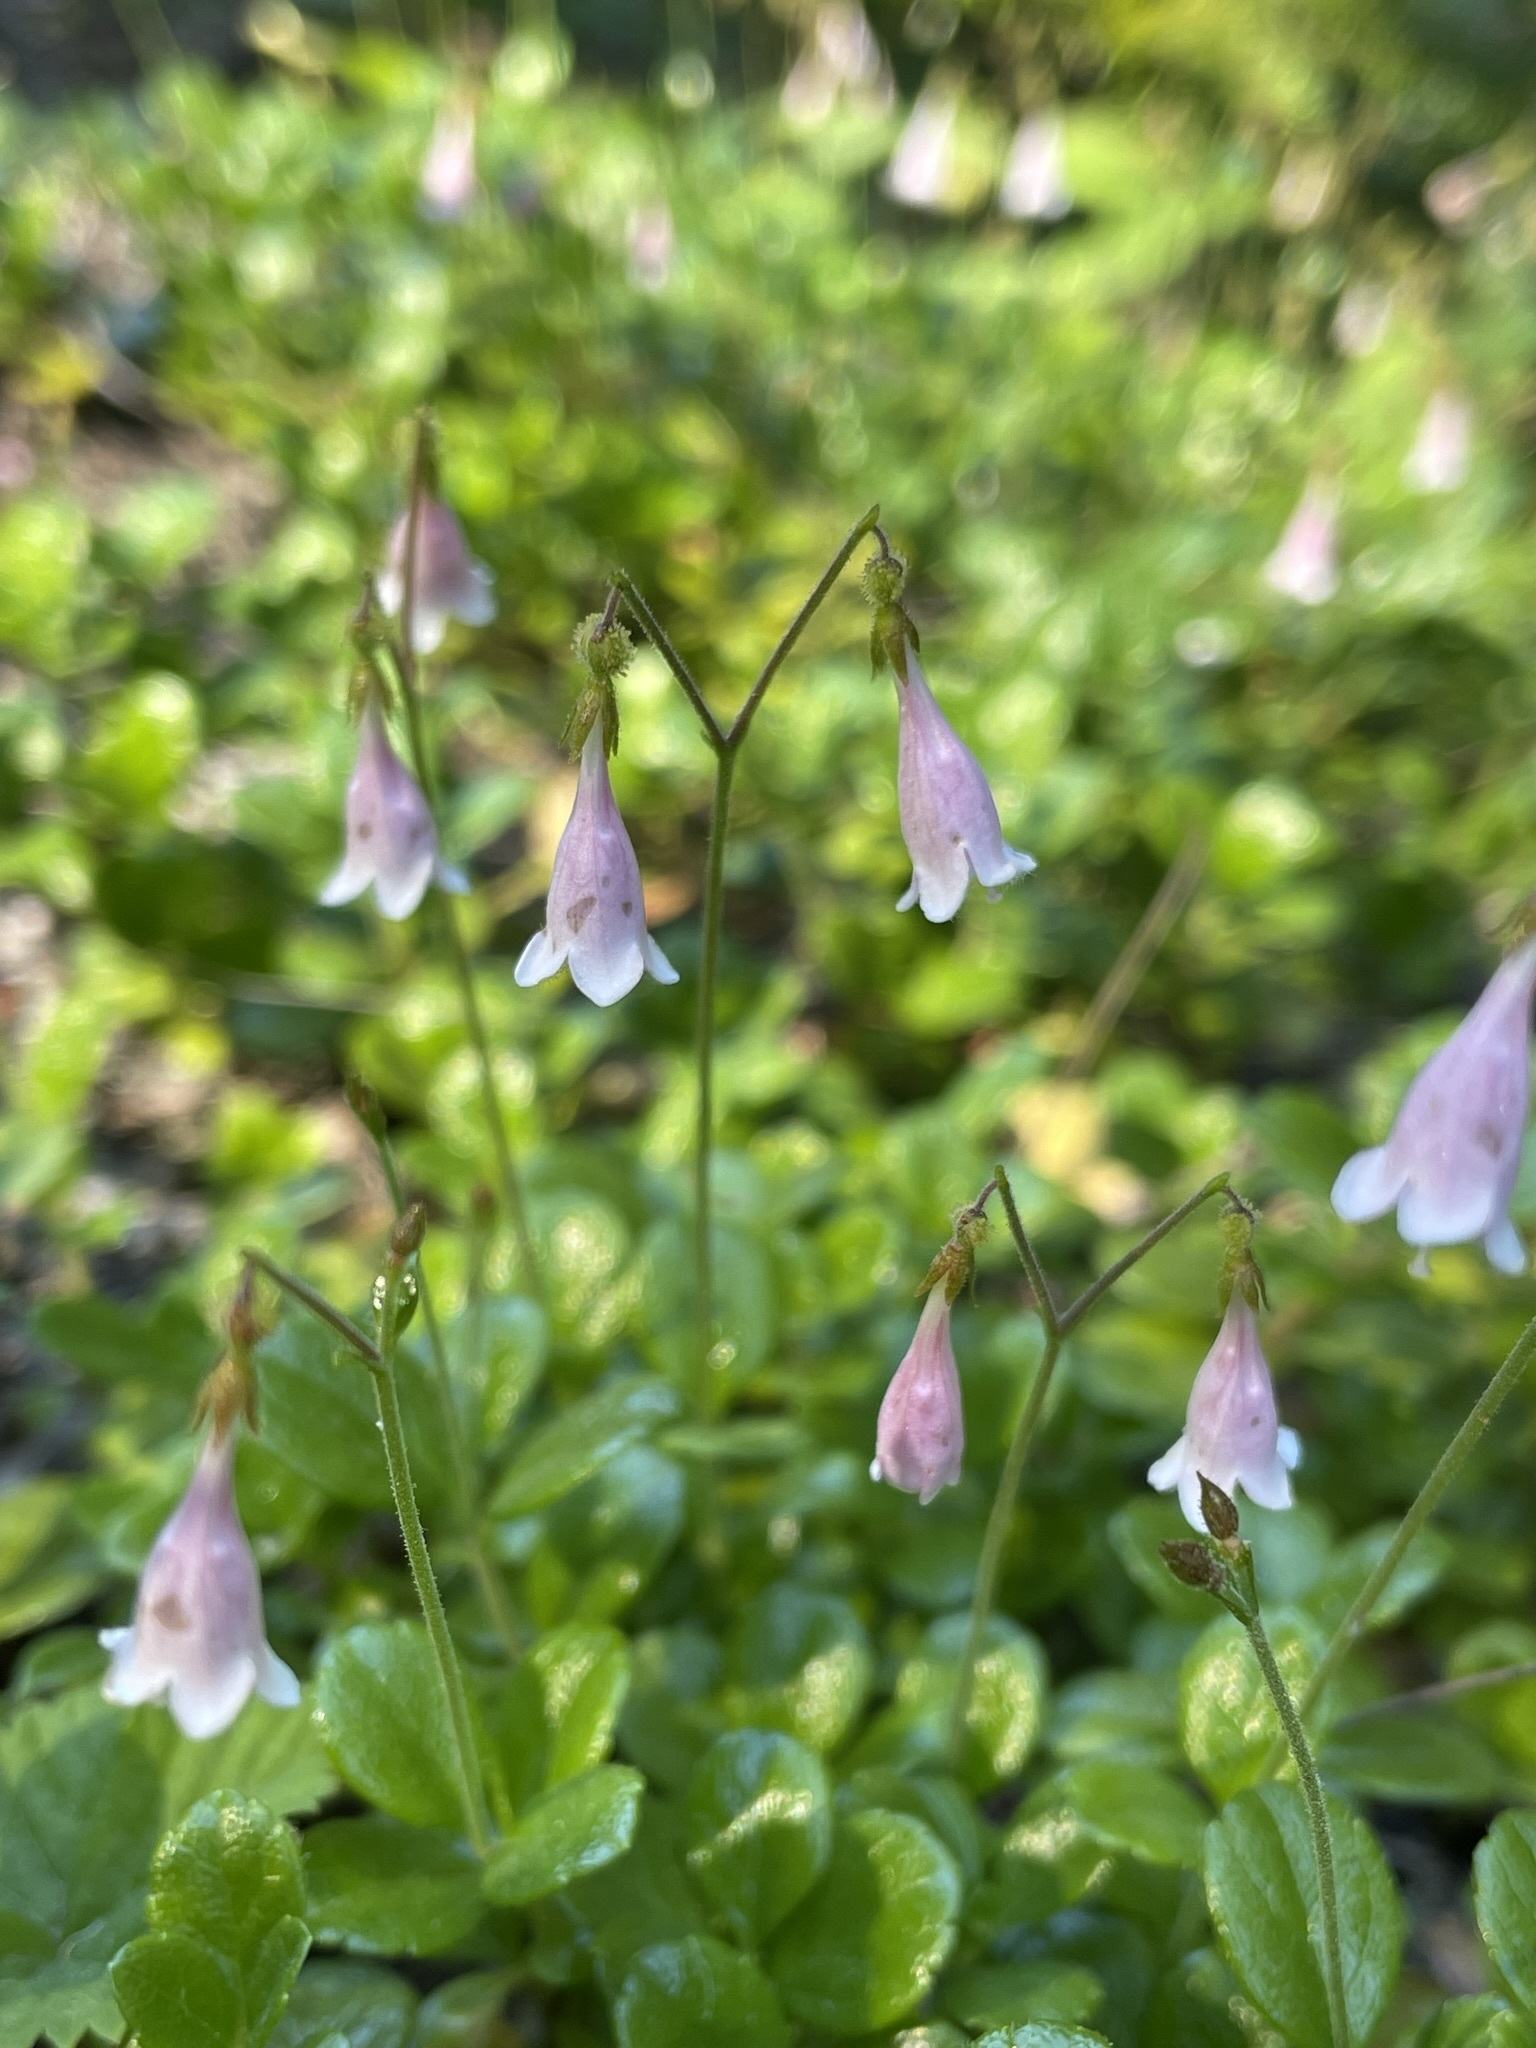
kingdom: Plantae
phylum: Tracheophyta
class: Magnoliopsida
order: Dipsacales
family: Caprifoliaceae
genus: Linnaea
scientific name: Linnaea borealis
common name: Twinflower
